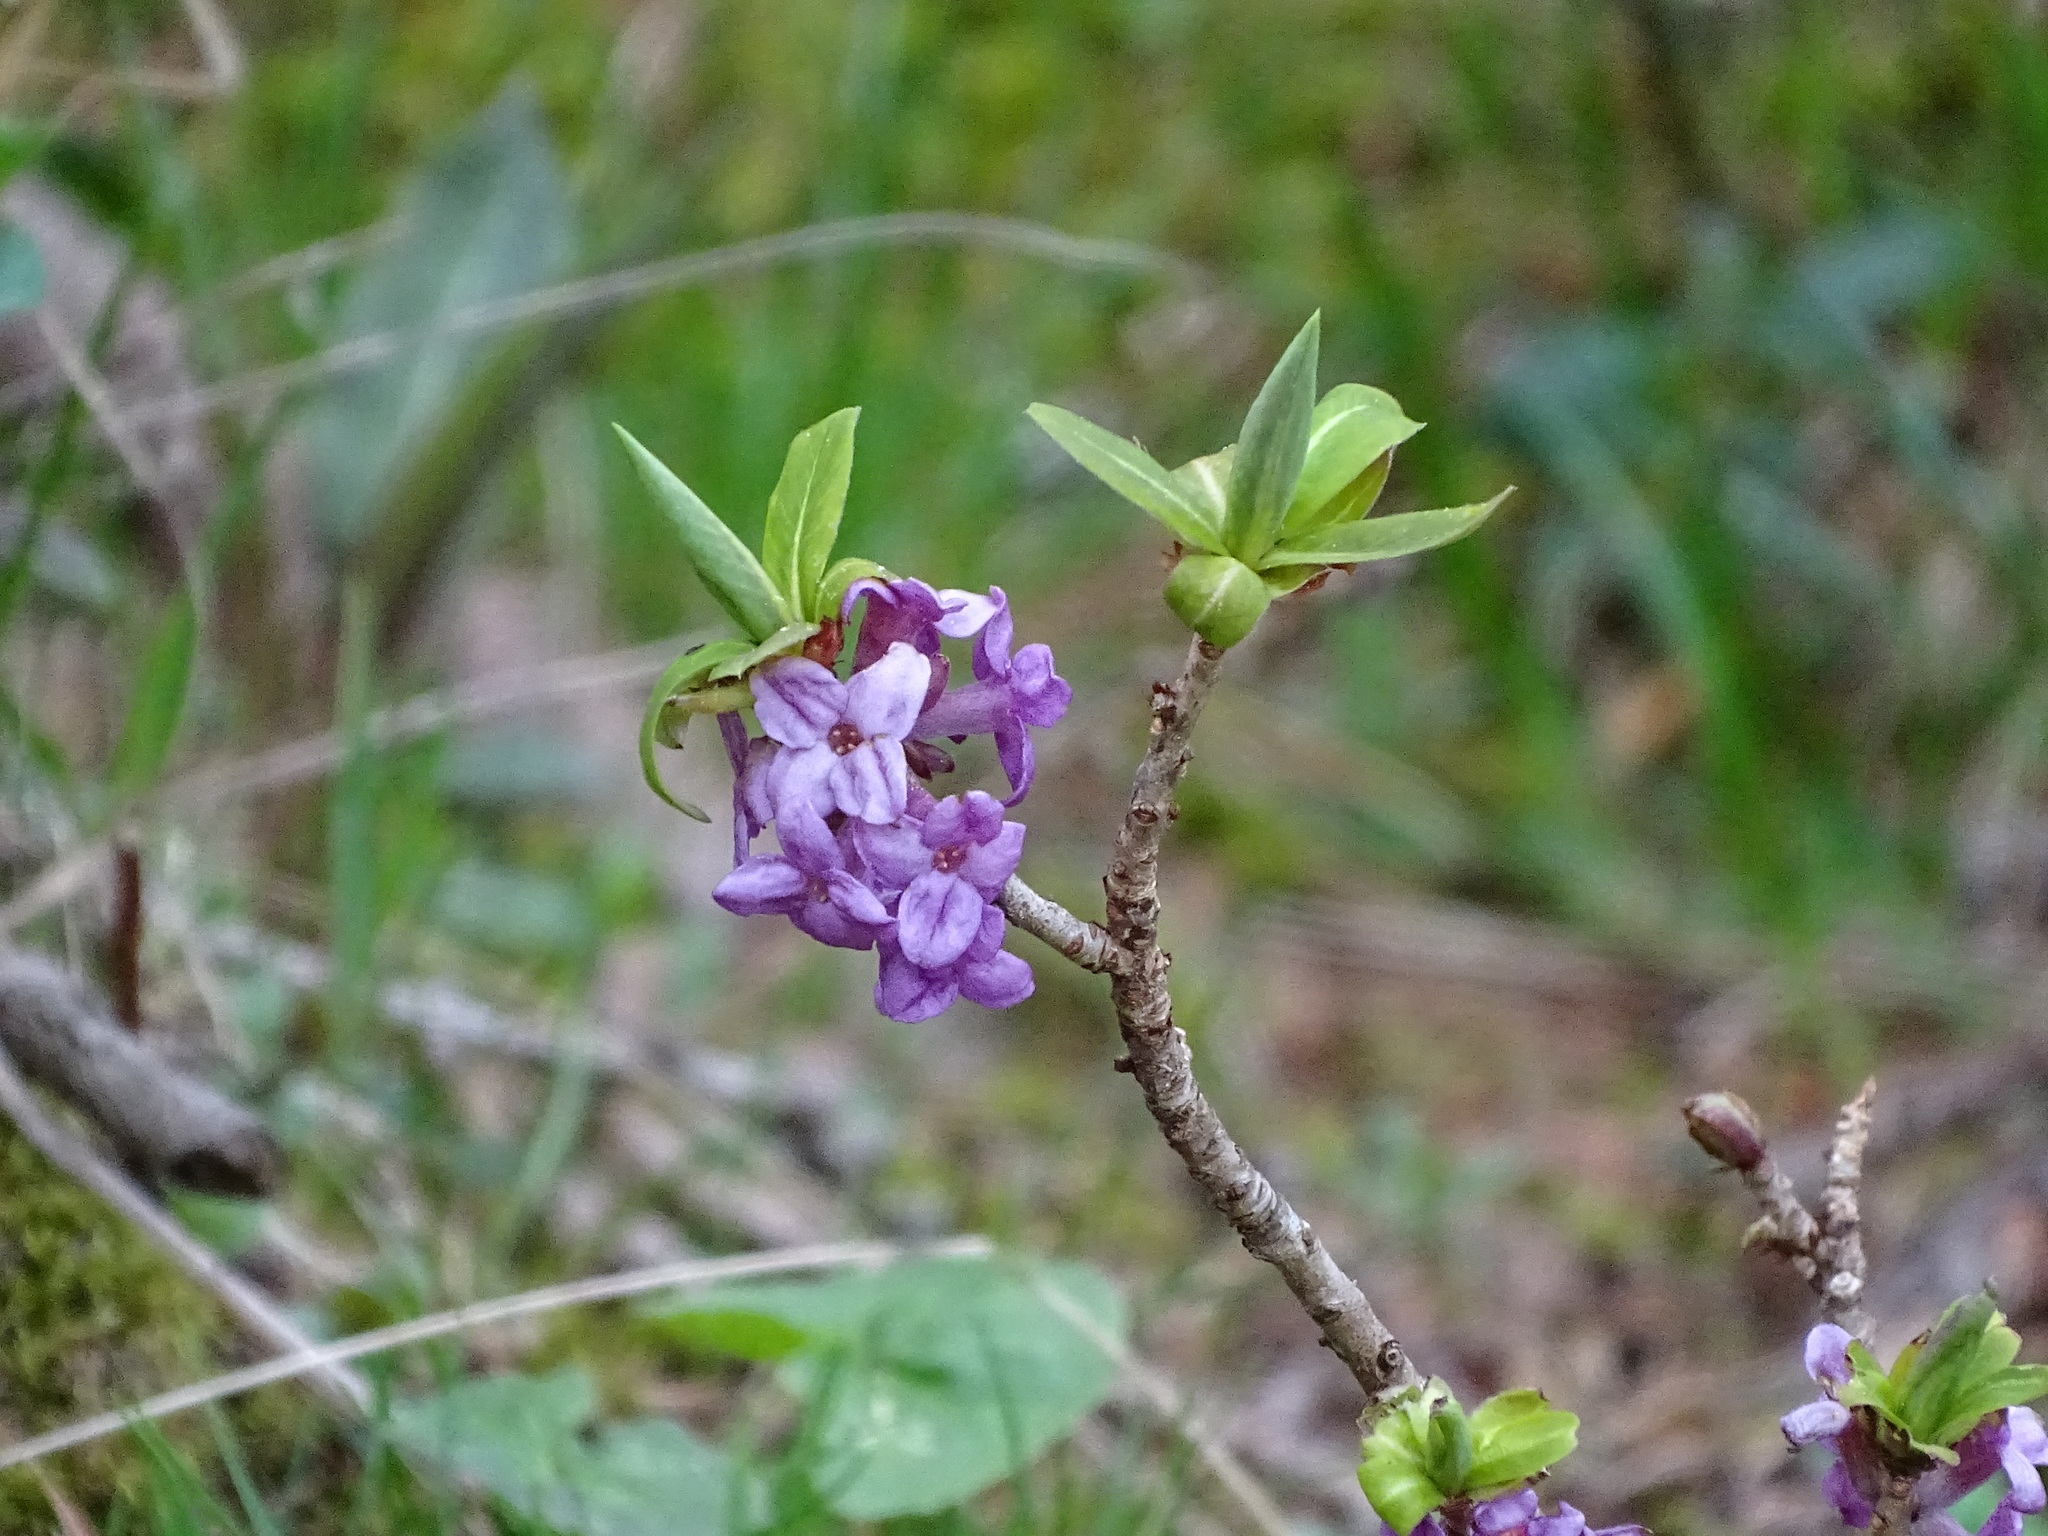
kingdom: Plantae
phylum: Tracheophyta
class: Magnoliopsida
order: Malvales
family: Thymelaeaceae
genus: Daphne
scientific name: Daphne mezereum
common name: Mezereon
